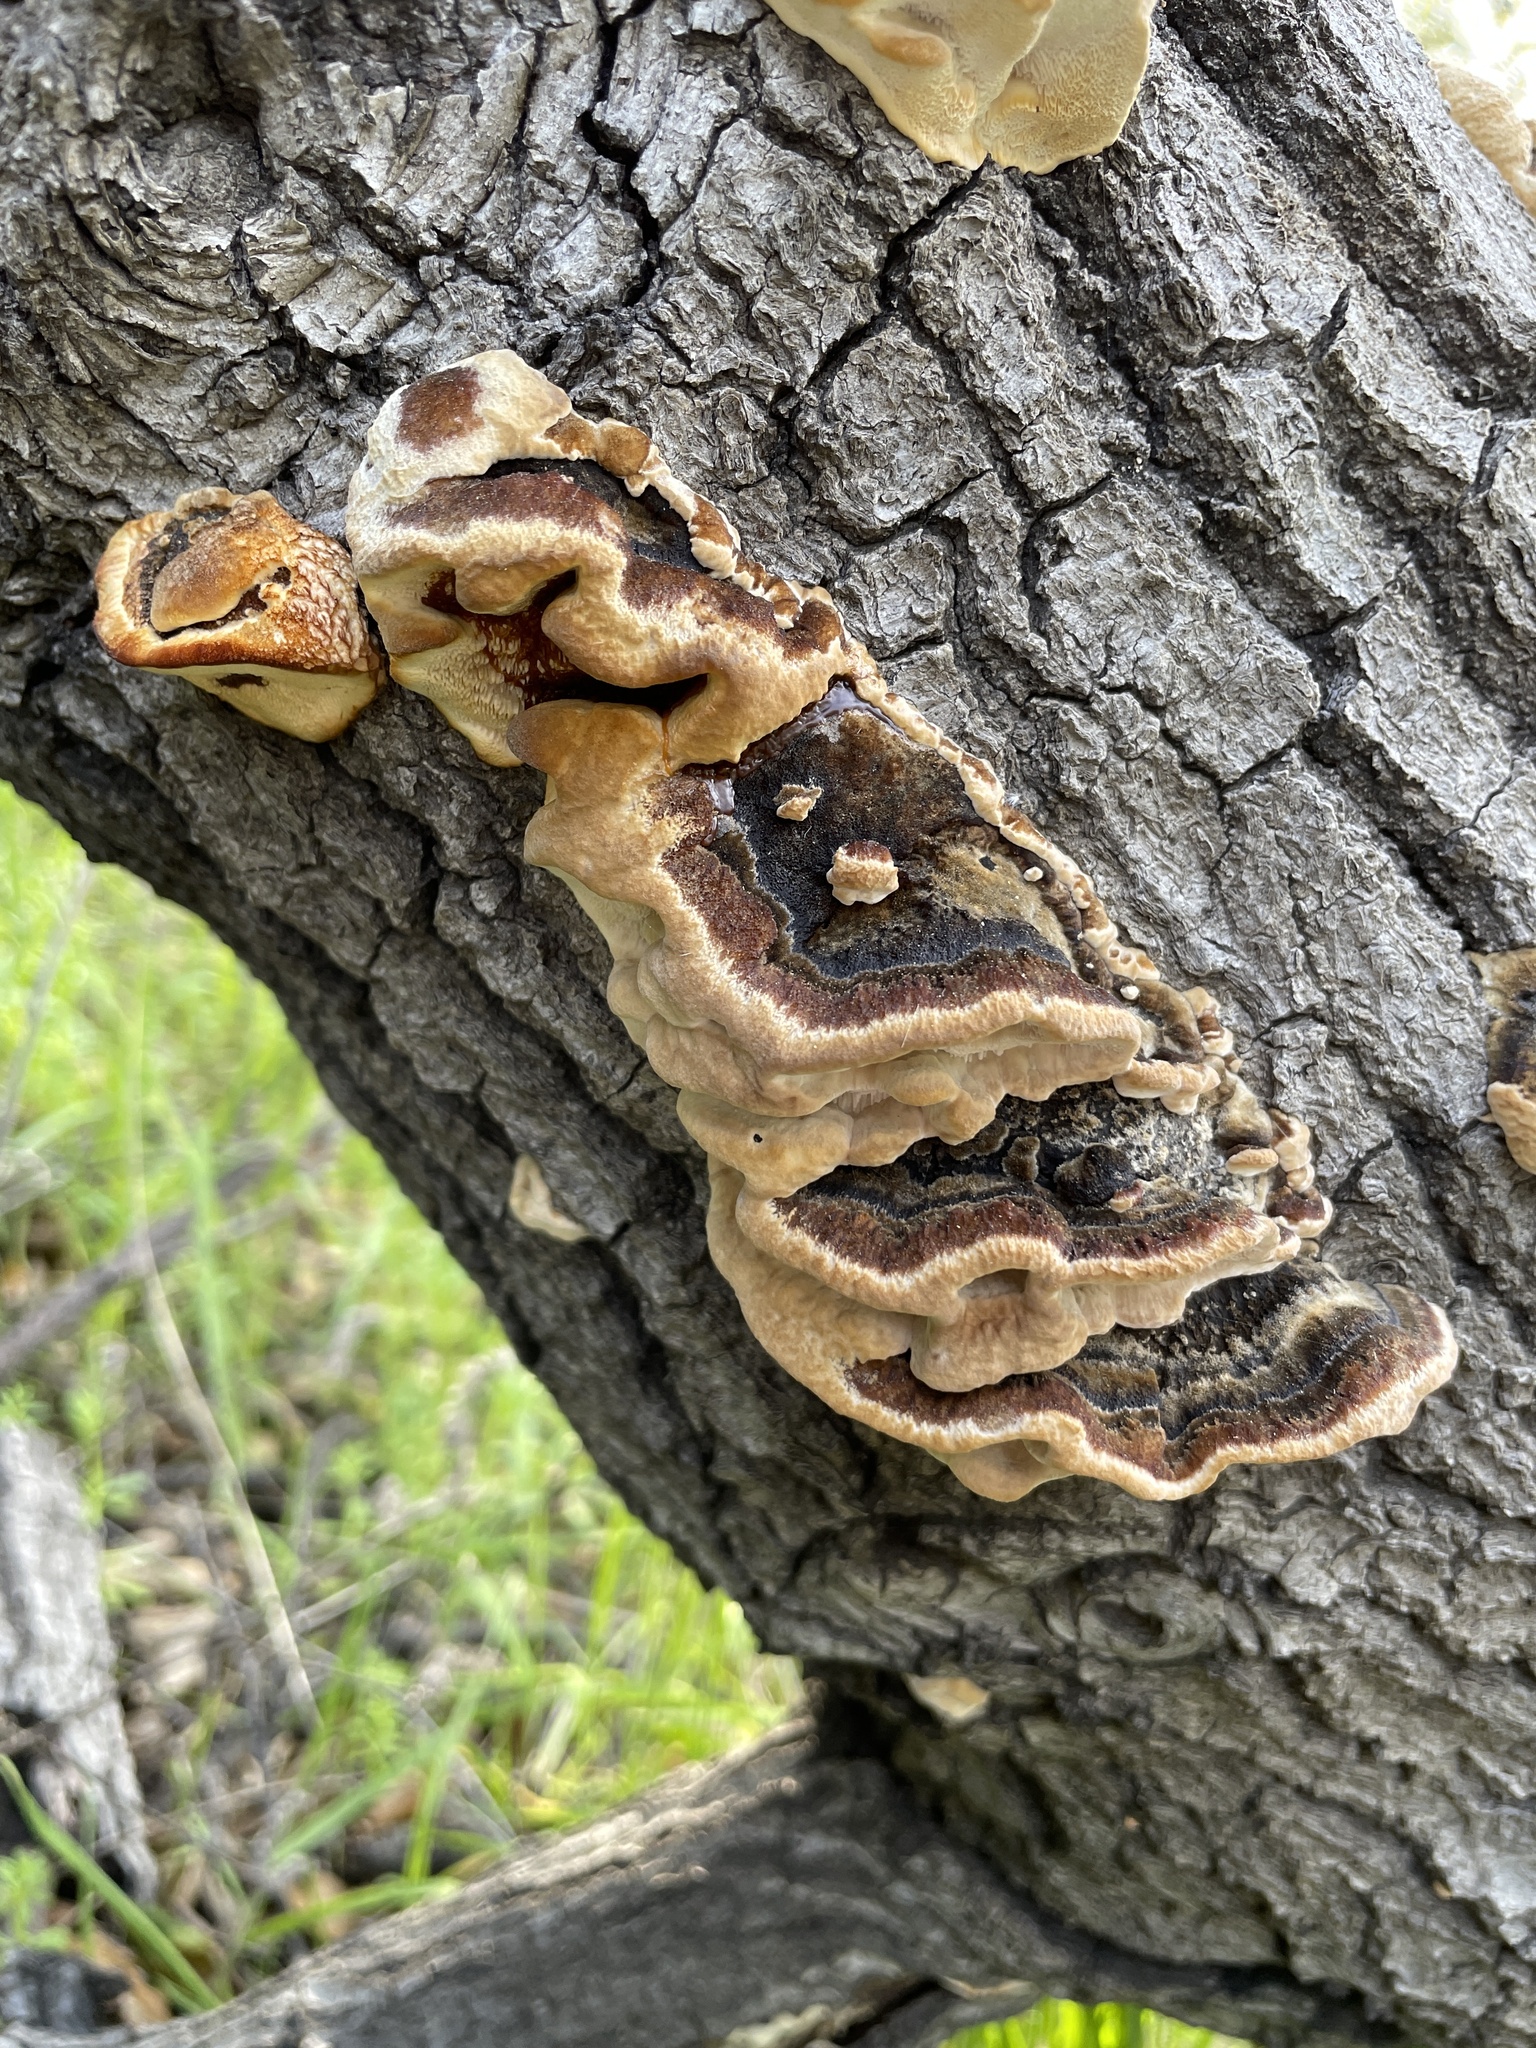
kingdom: Fungi
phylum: Basidiomycota
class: Agaricomycetes
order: Hymenochaetales
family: Hymenochaetaceae
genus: Phellinus
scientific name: Phellinus gilvus
